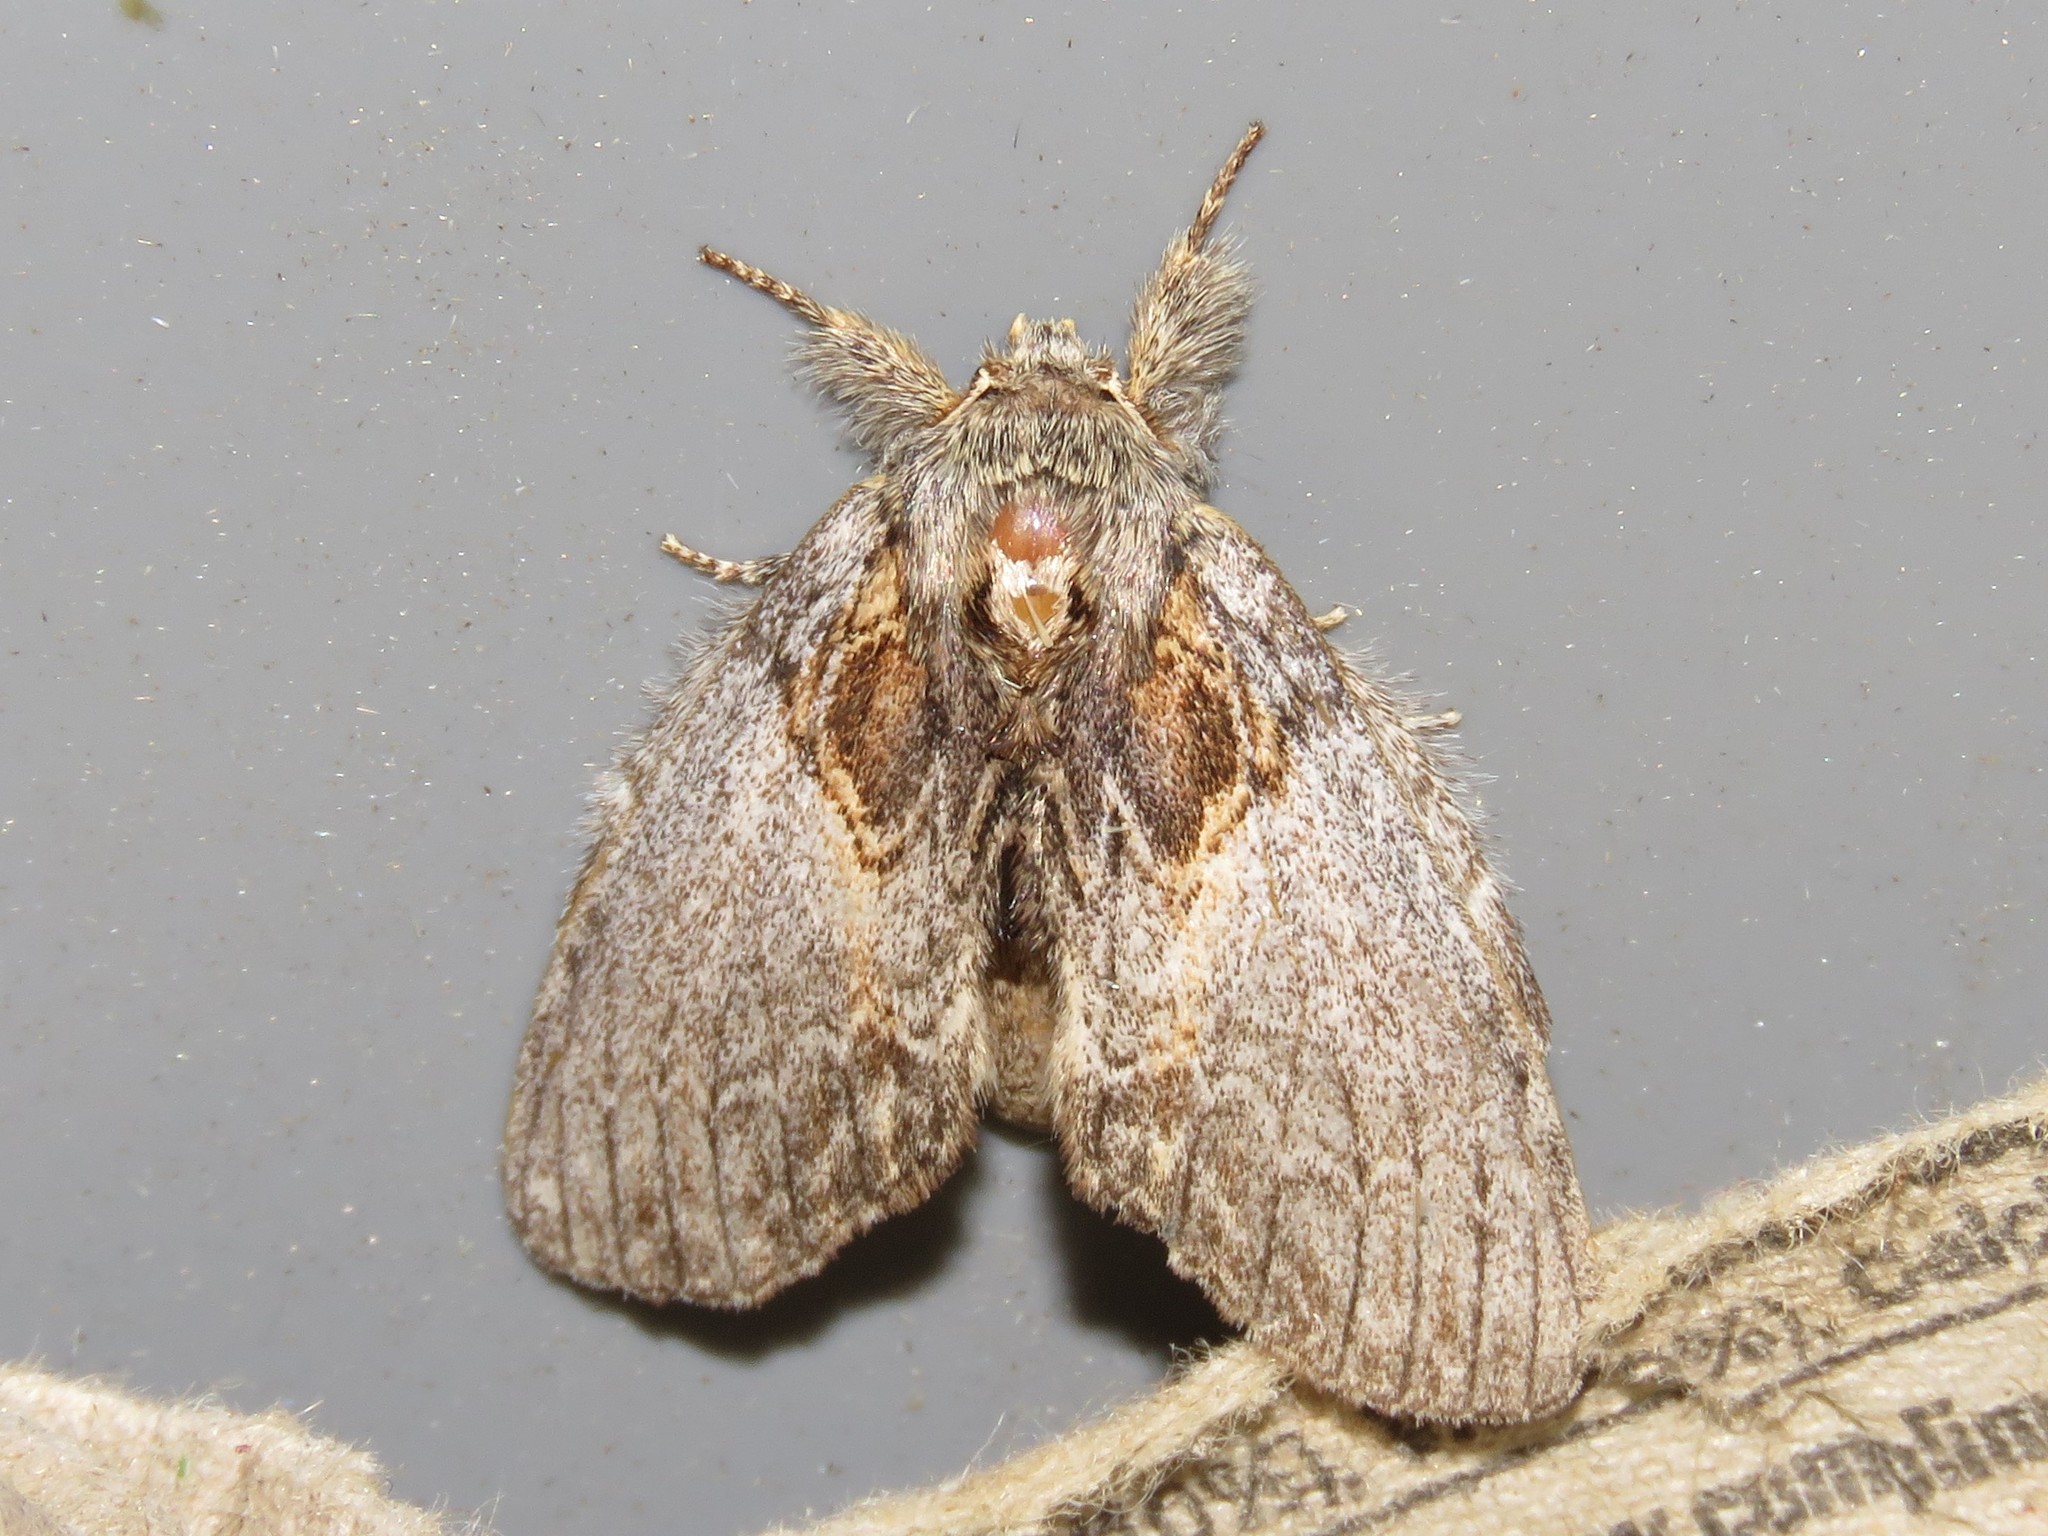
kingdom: Animalia
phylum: Arthropoda
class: Insecta
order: Lepidoptera
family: Notodontidae
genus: Peridea
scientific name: Peridea basitriens
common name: Oval-based prominent
